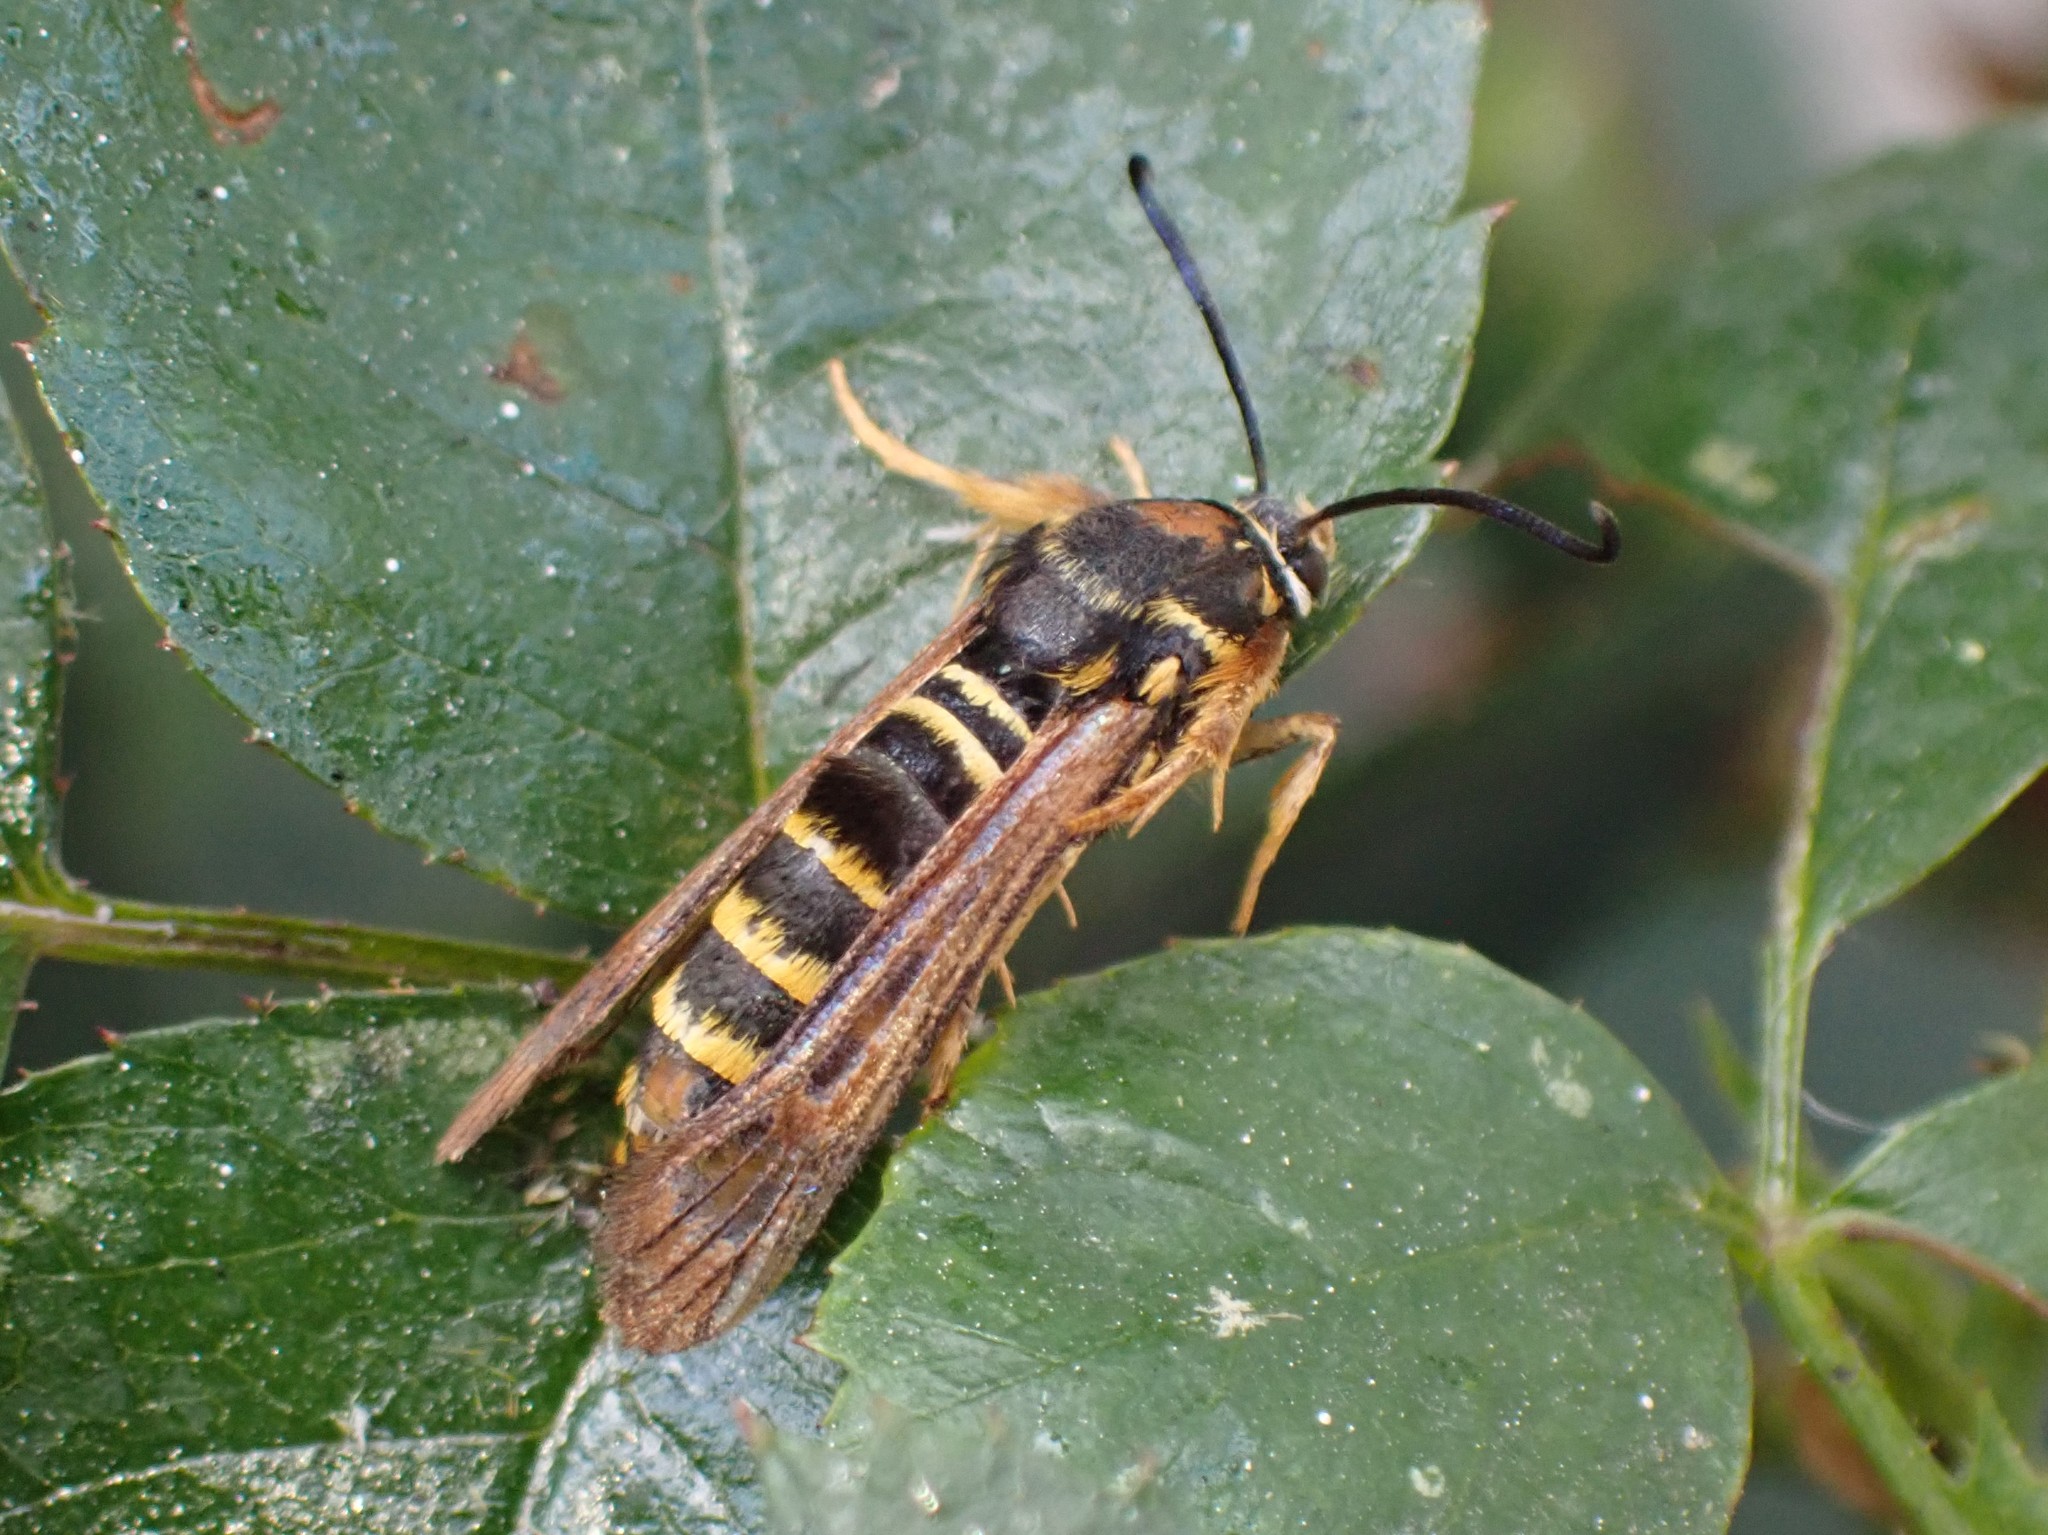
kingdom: Animalia
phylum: Arthropoda
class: Insecta
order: Lepidoptera
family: Sesiidae
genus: Pennisetia
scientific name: Pennisetia marginatum
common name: Raspberry crown borer
